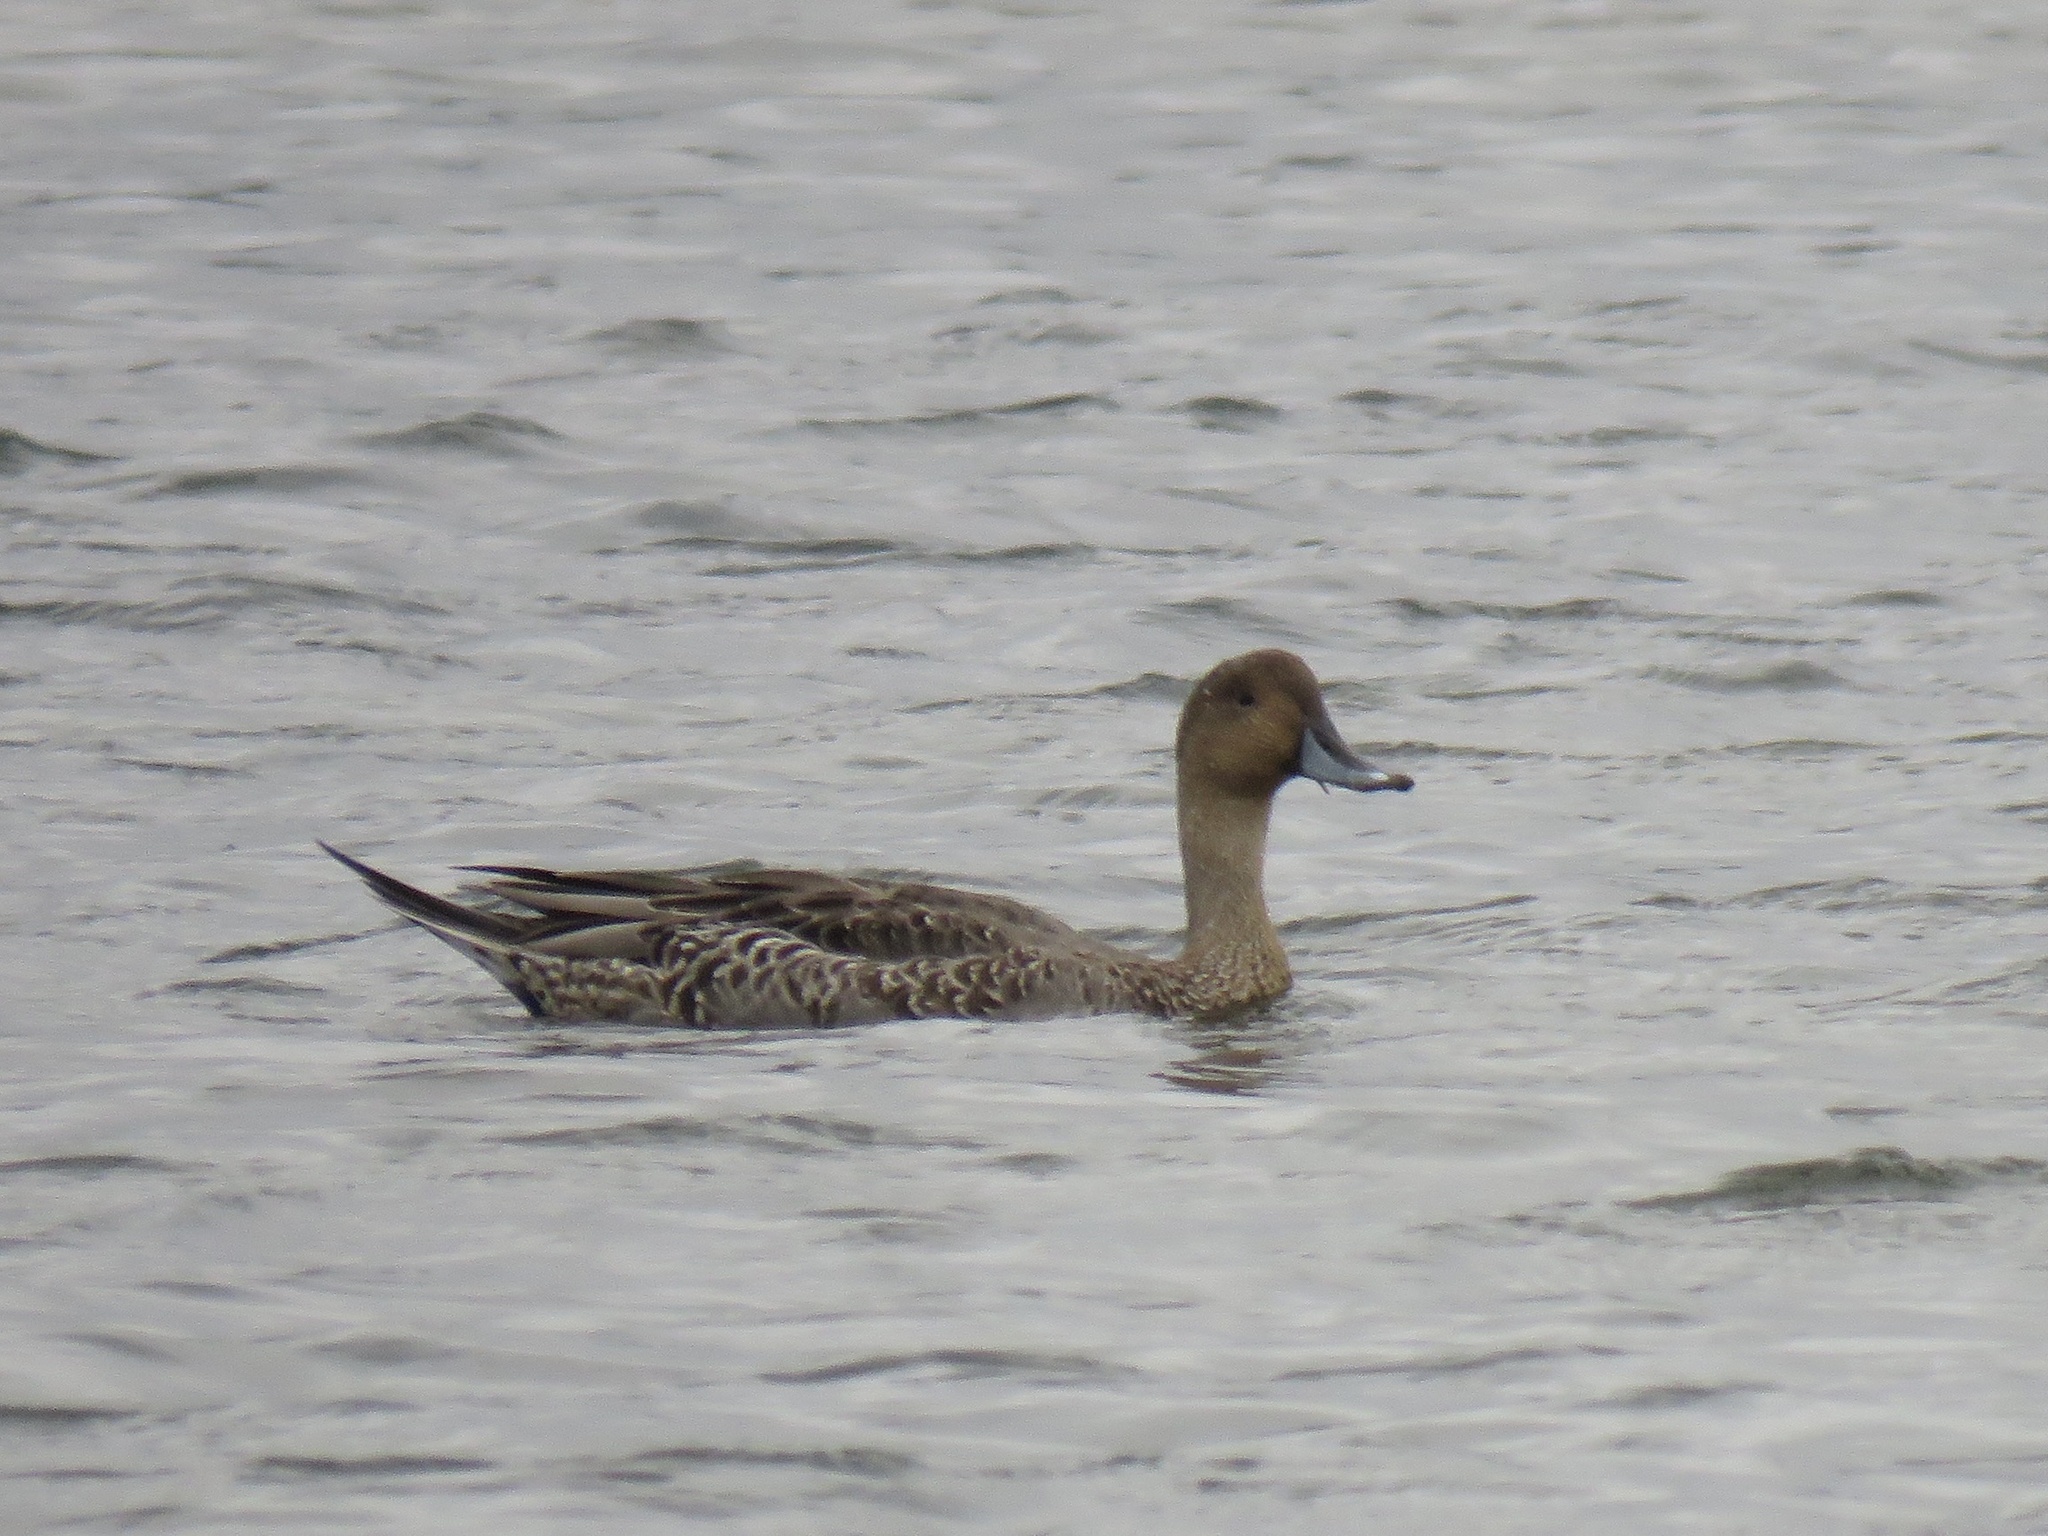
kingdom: Animalia
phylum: Chordata
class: Aves
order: Anseriformes
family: Anatidae
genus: Anas
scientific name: Anas acuta
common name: Northern pintail
